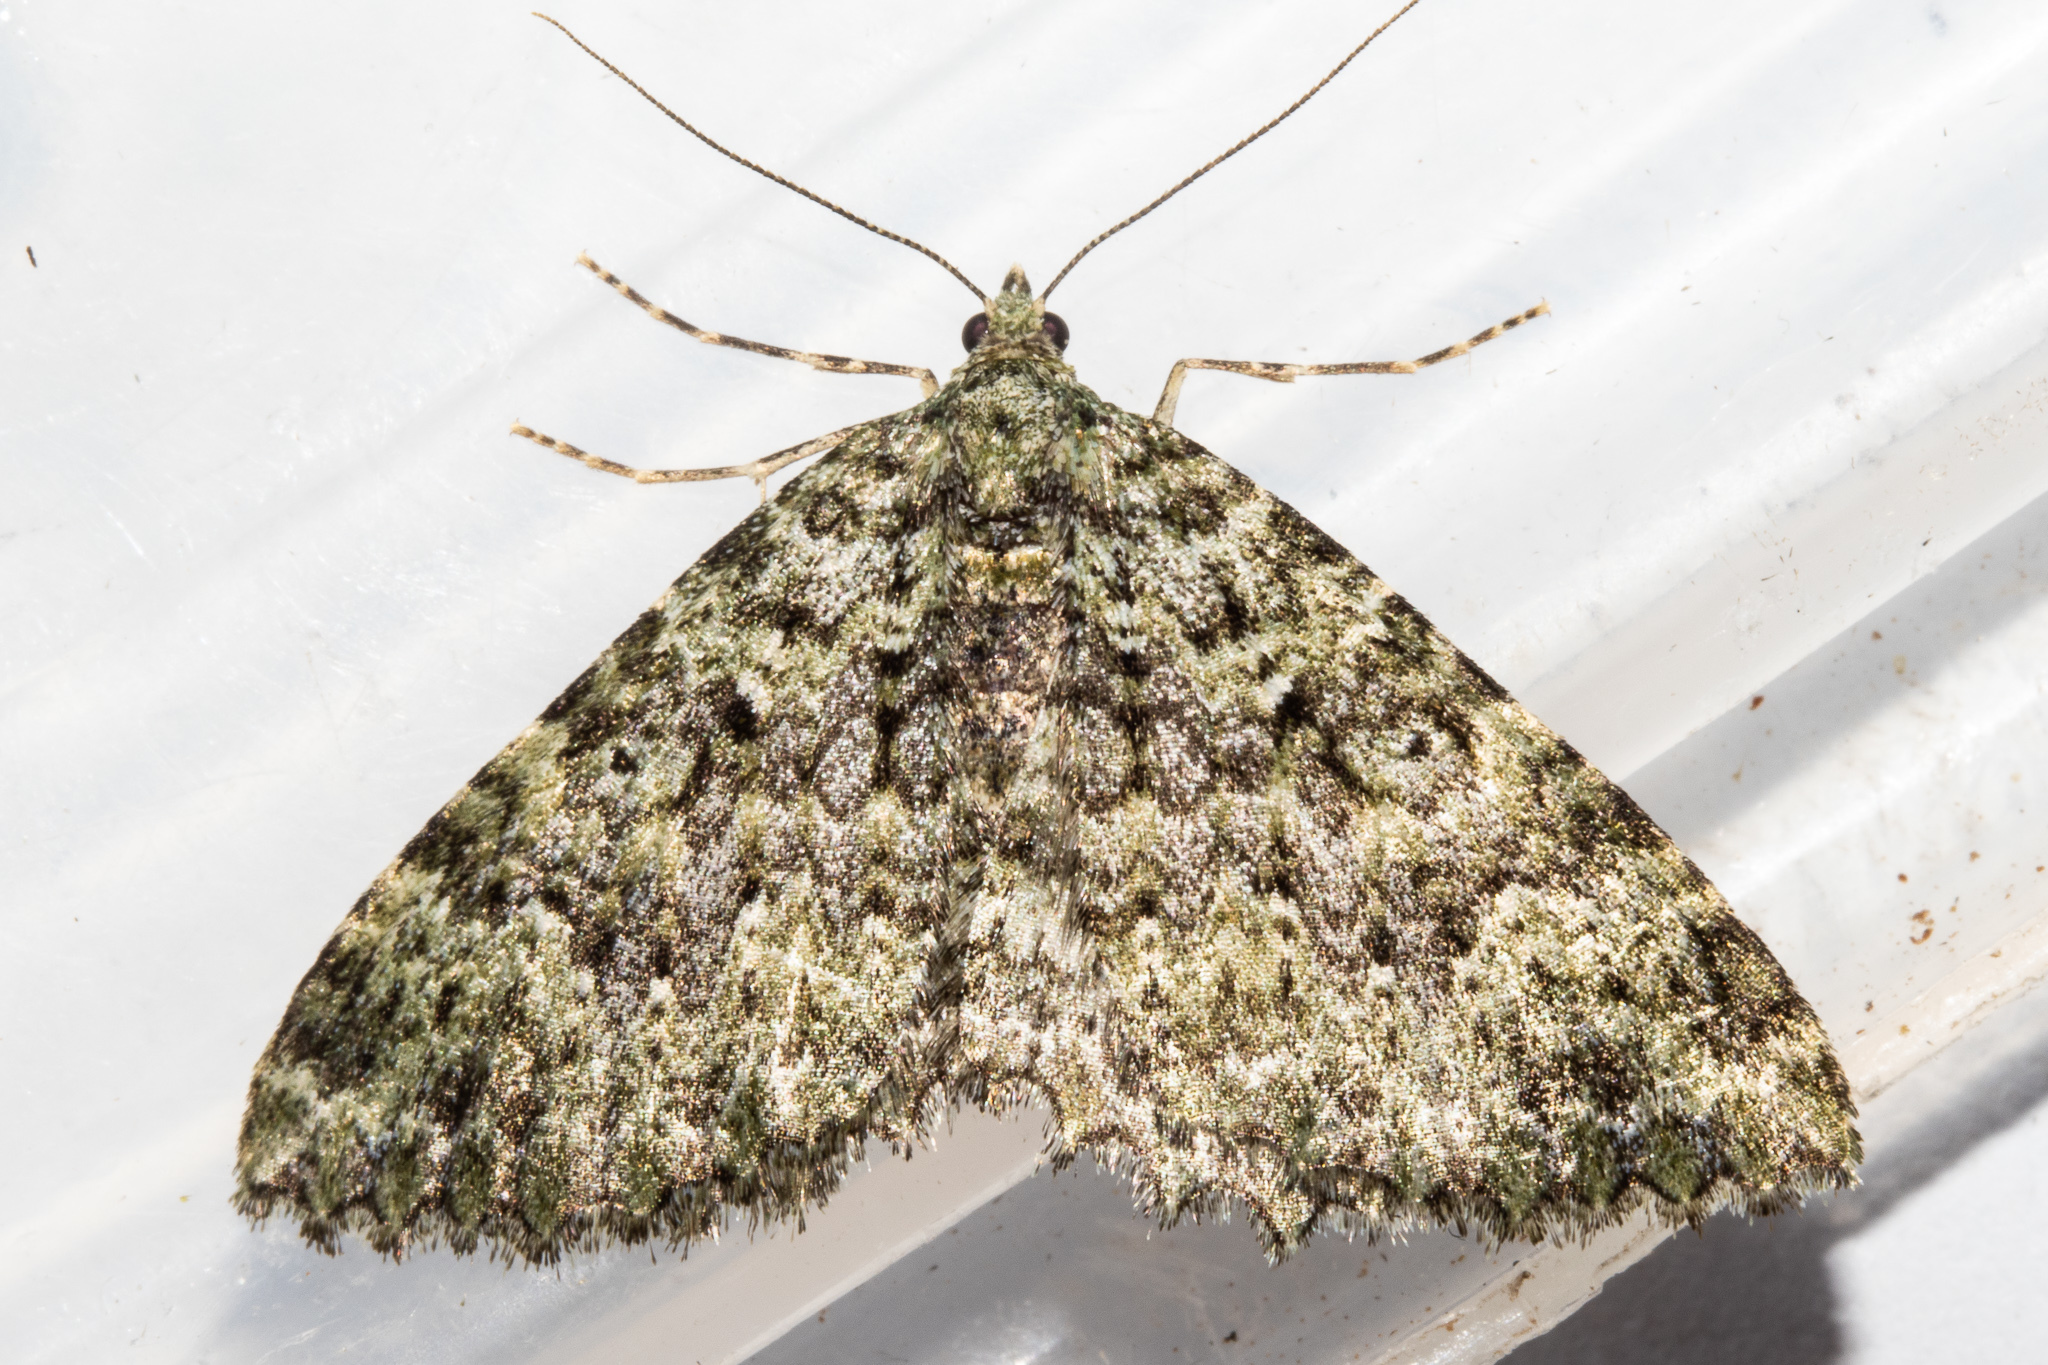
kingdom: Animalia
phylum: Arthropoda
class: Insecta
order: Lepidoptera
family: Geometridae
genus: Austrocidaria
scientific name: Austrocidaria umbrosa
